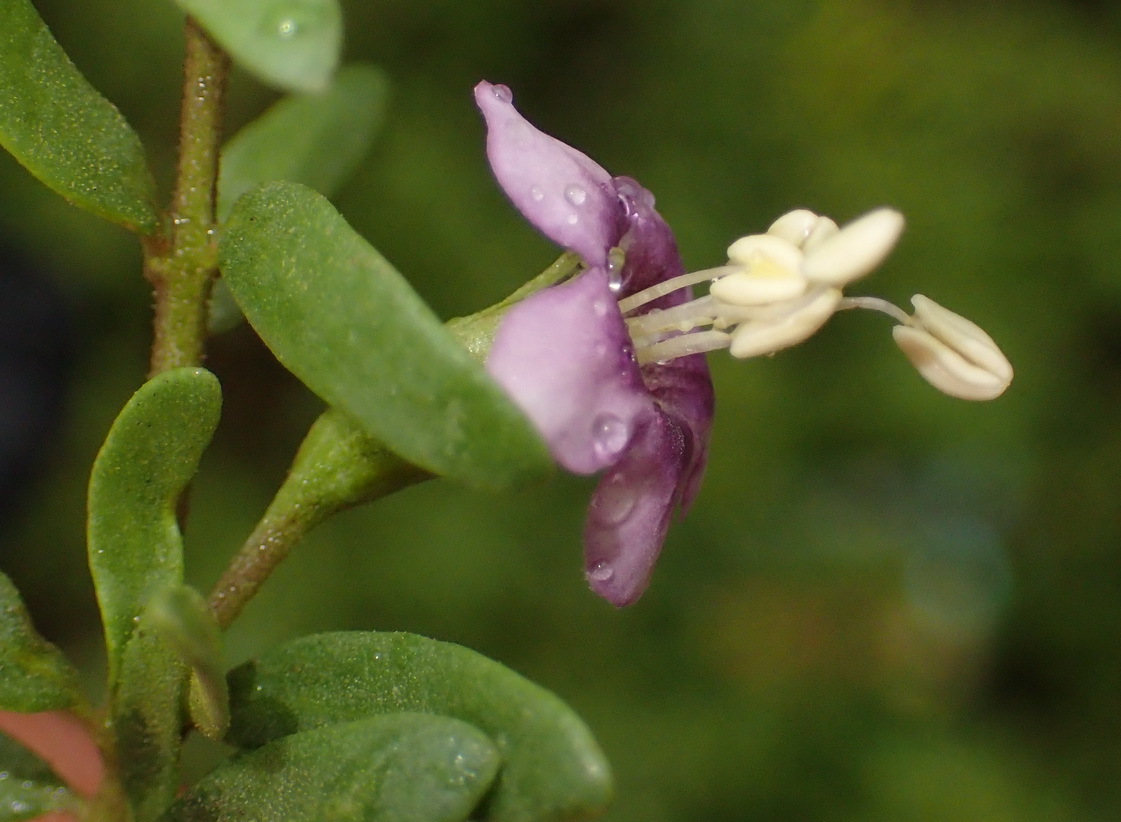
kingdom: Plantae
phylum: Tracheophyta
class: Magnoliopsida
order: Solanales
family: Solanaceae
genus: Lycium
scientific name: Lycium pumilum
